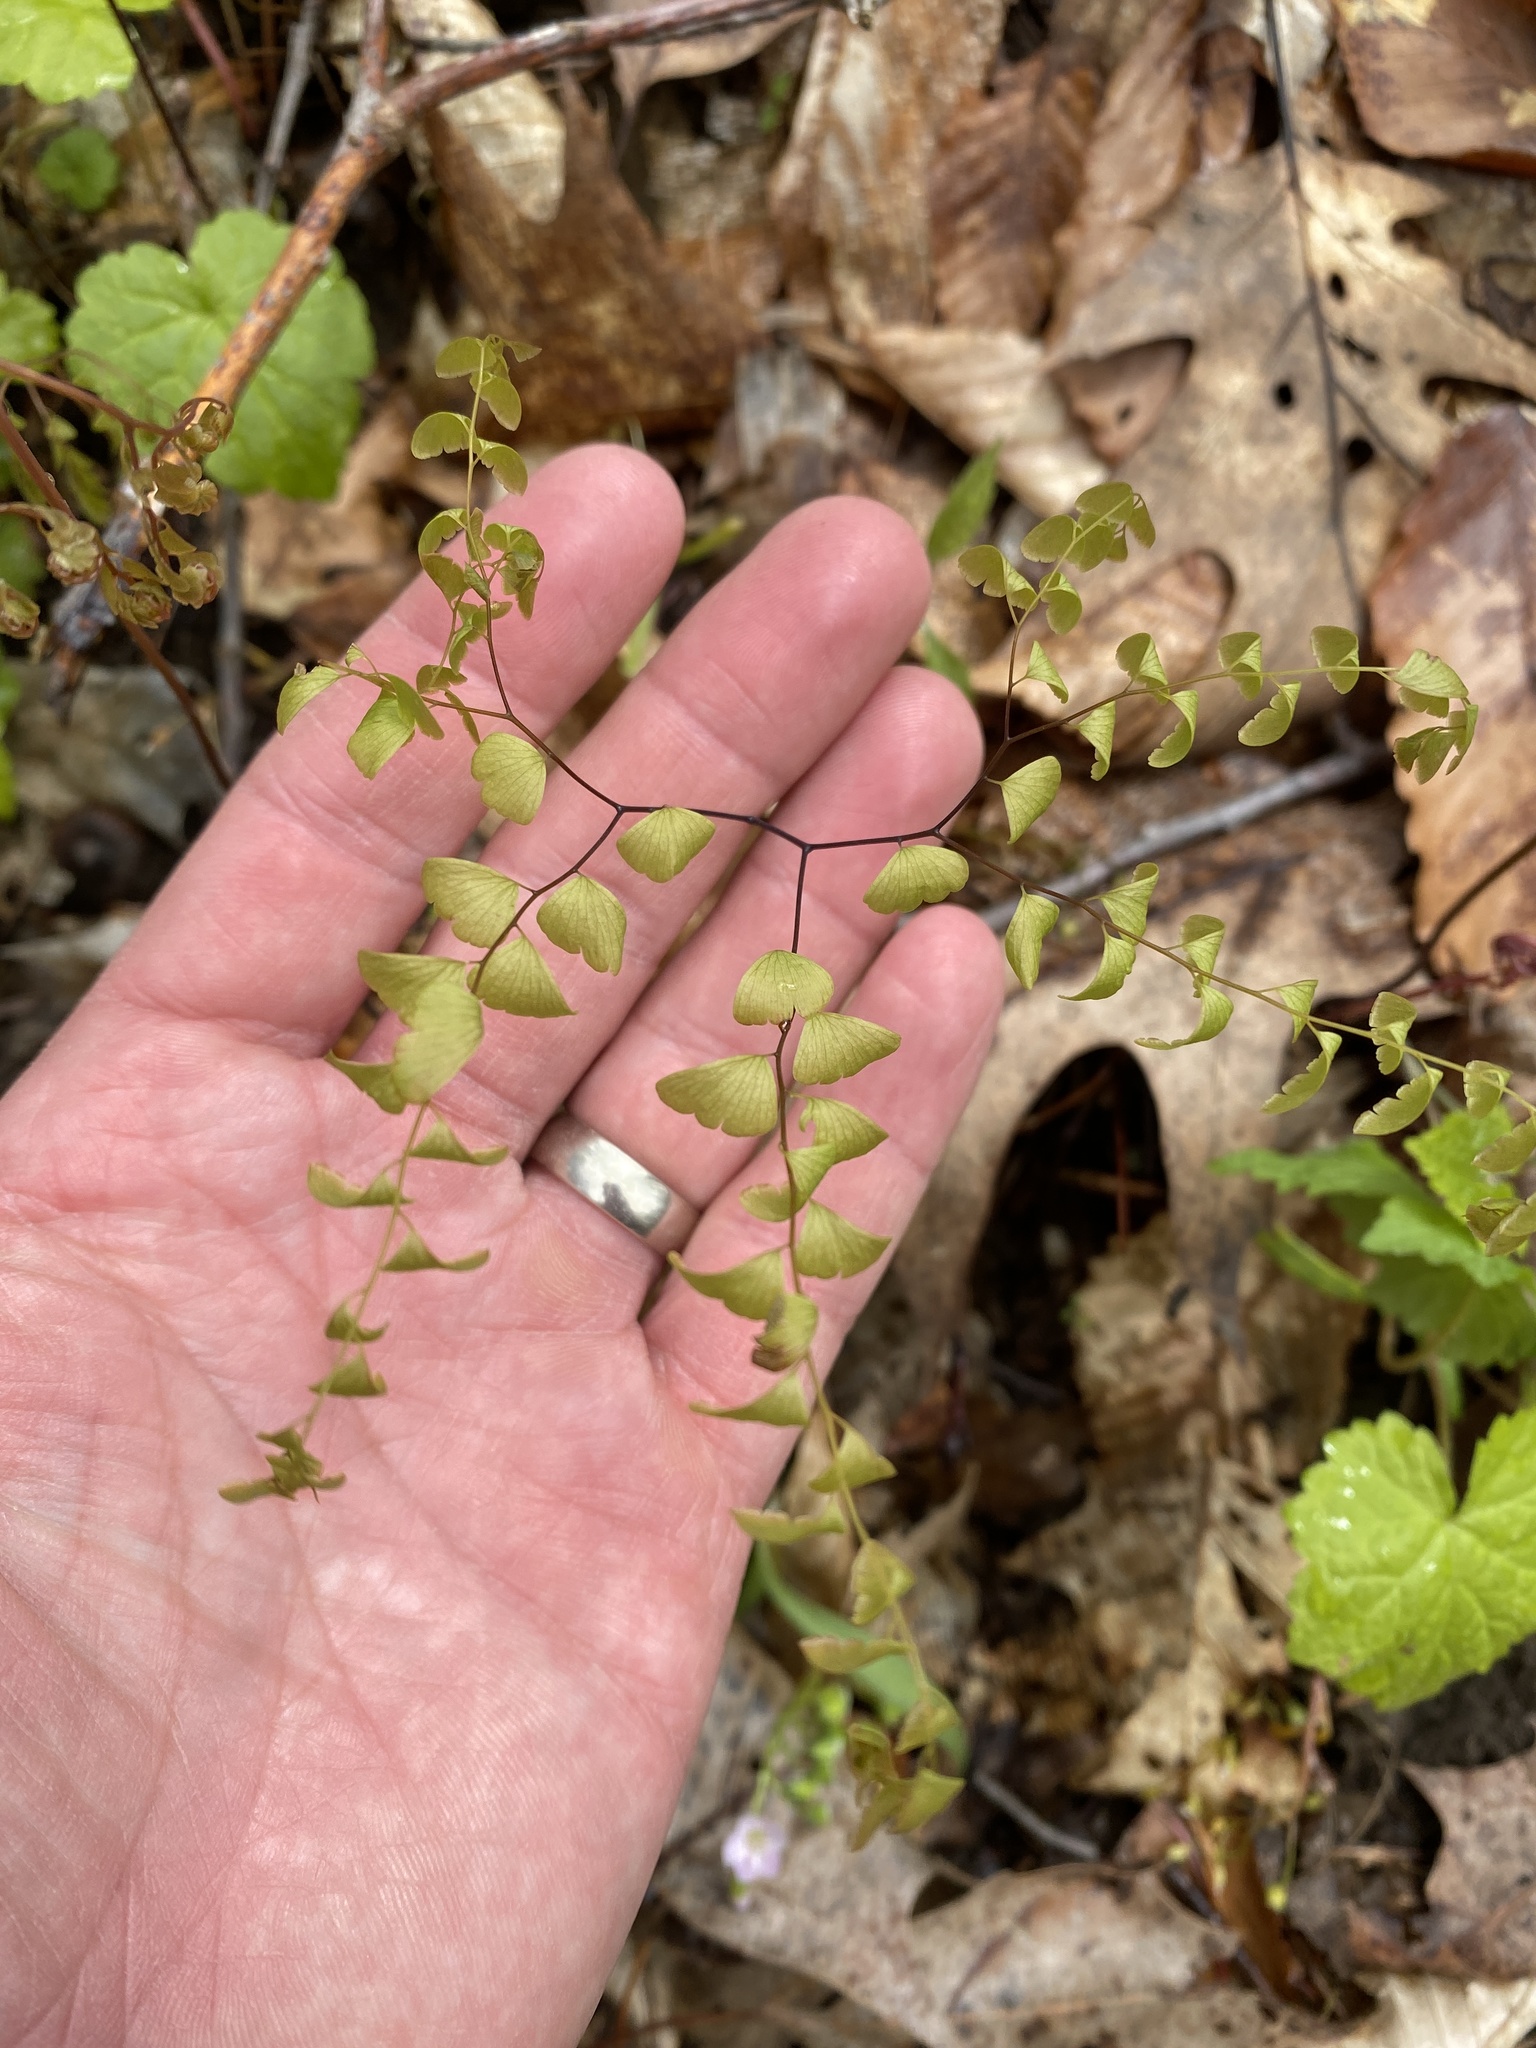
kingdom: Plantae
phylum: Tracheophyta
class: Polypodiopsida
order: Polypodiales
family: Pteridaceae
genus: Adiantum
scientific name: Adiantum pedatum
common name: Five-finger fern
